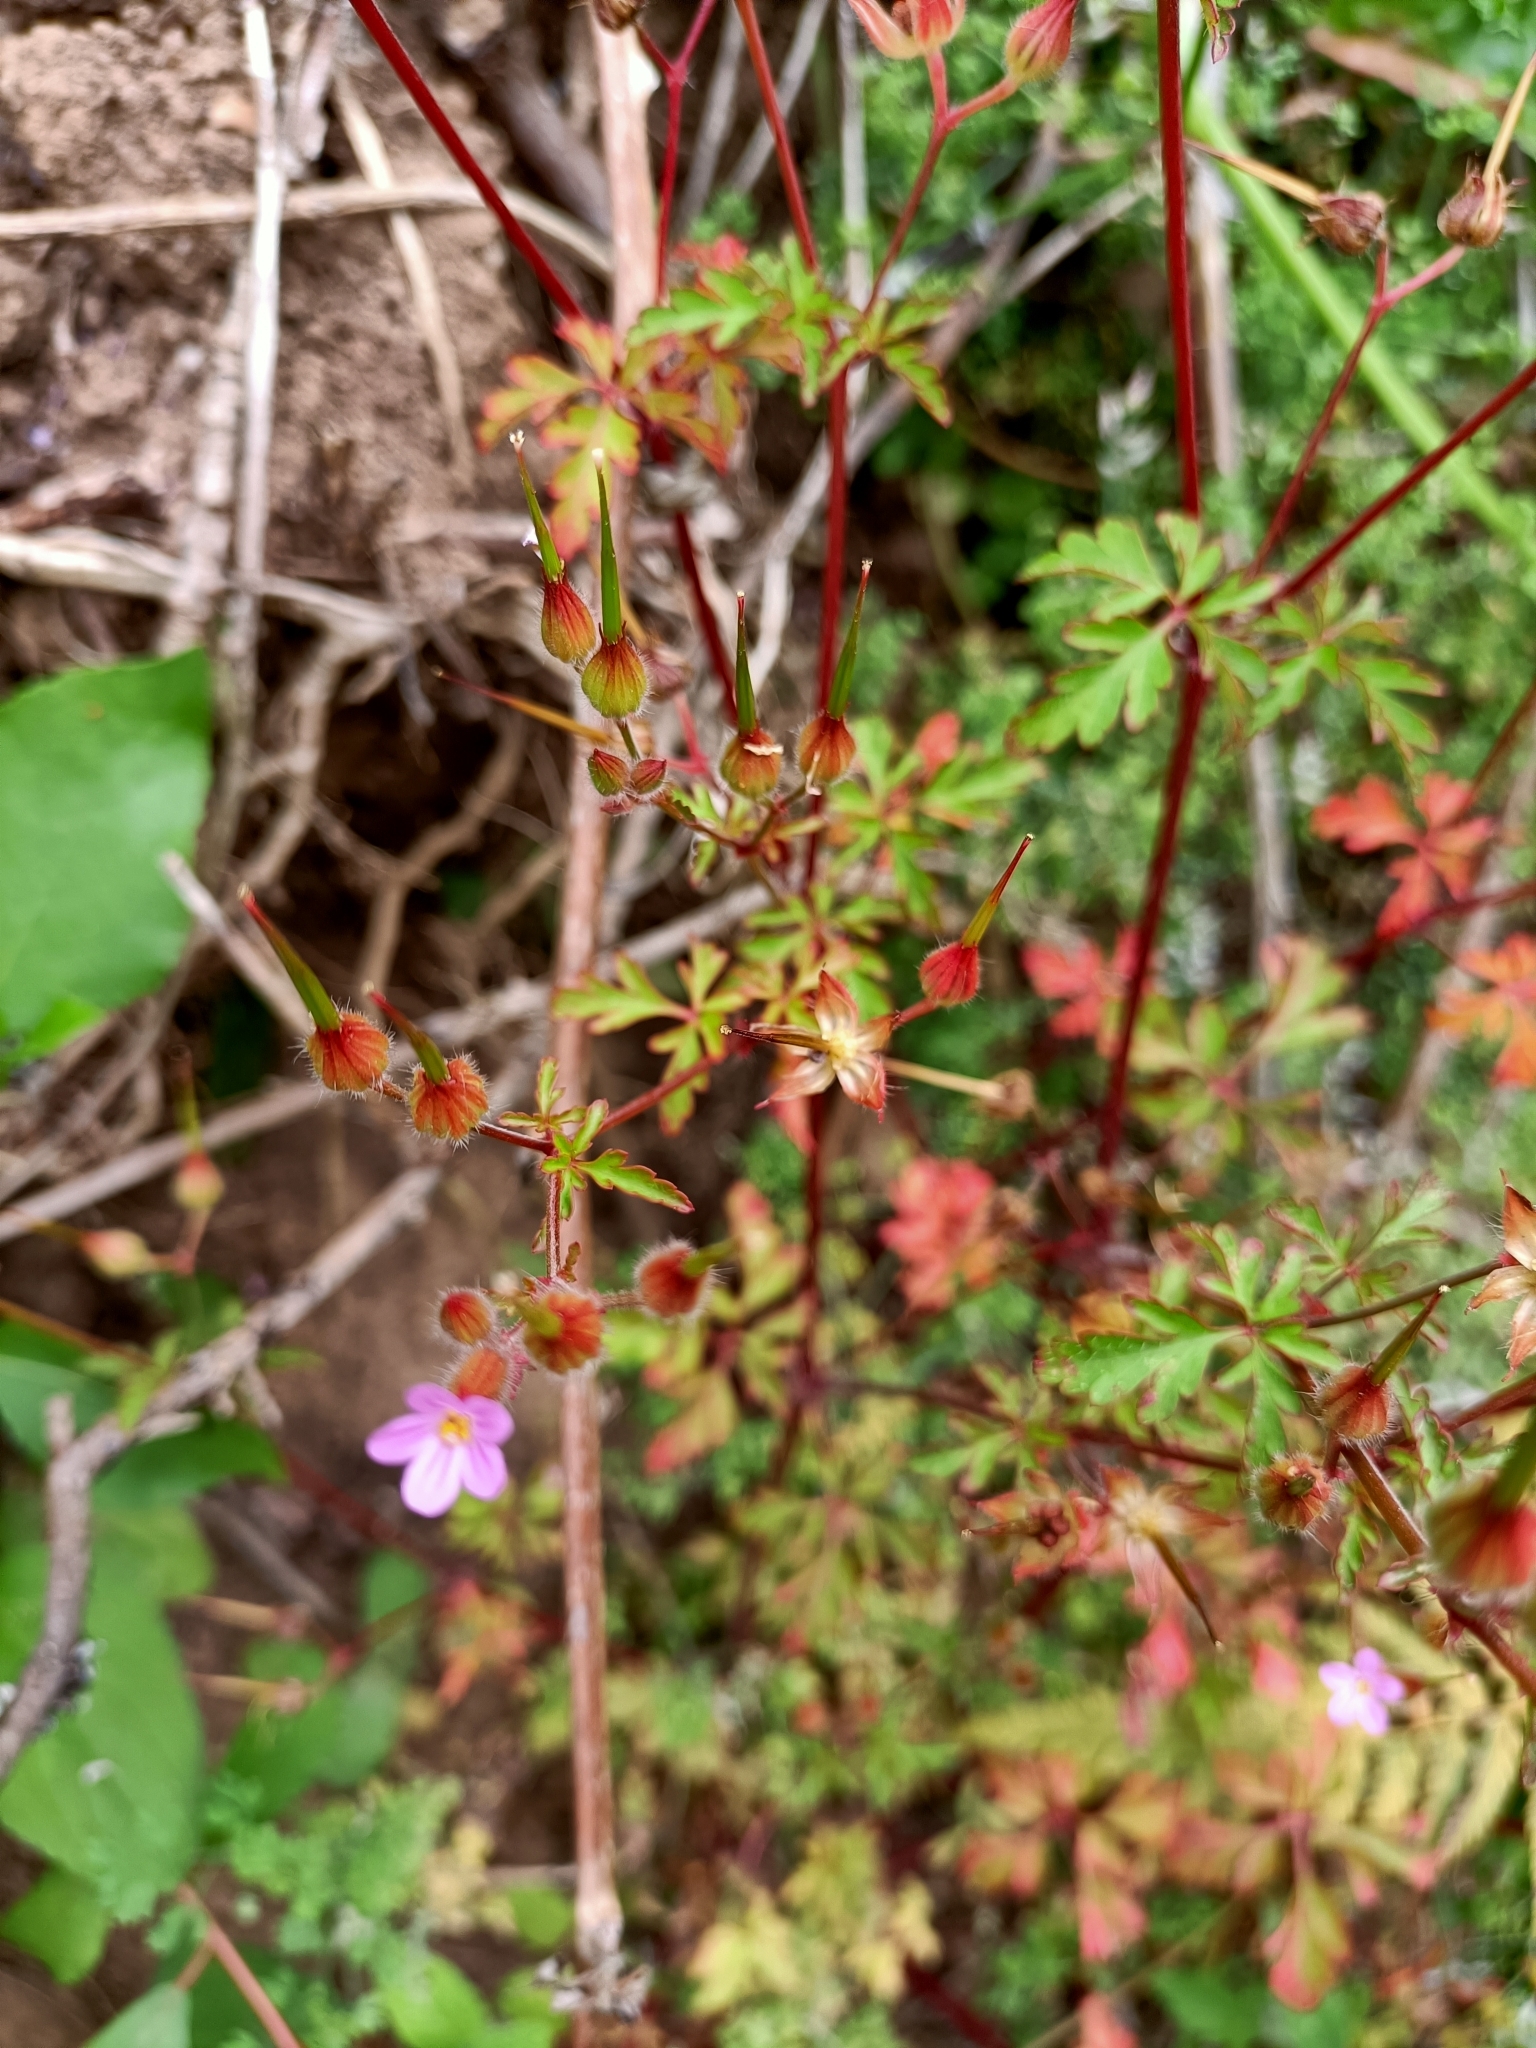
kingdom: Plantae
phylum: Tracheophyta
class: Magnoliopsida
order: Geraniales
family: Geraniaceae
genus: Geranium
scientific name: Geranium purpureum
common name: Little-robin
